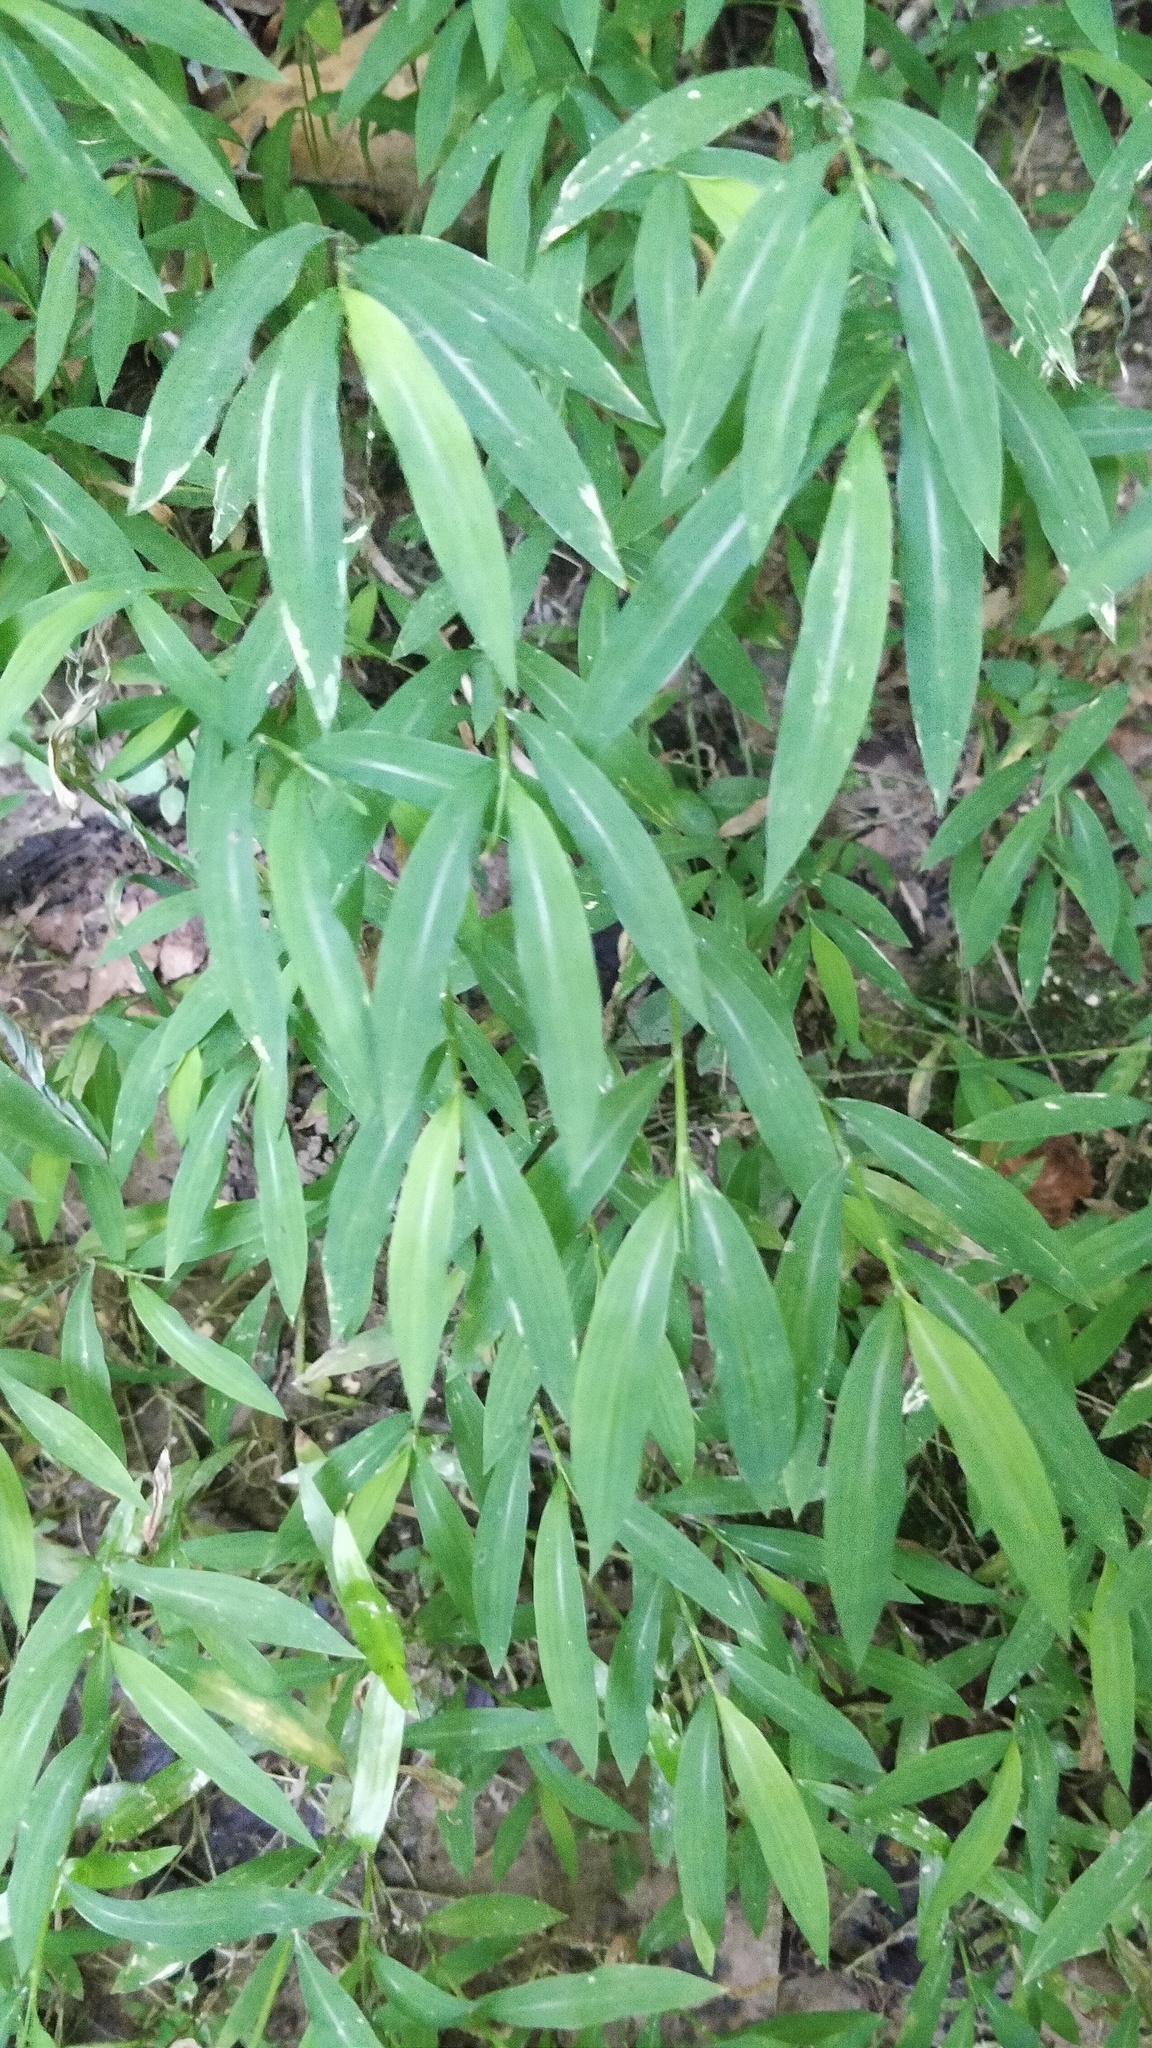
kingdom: Plantae
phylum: Tracheophyta
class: Liliopsida
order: Poales
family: Poaceae
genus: Microstegium
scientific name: Microstegium vimineum
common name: Japanese stiltgrass
